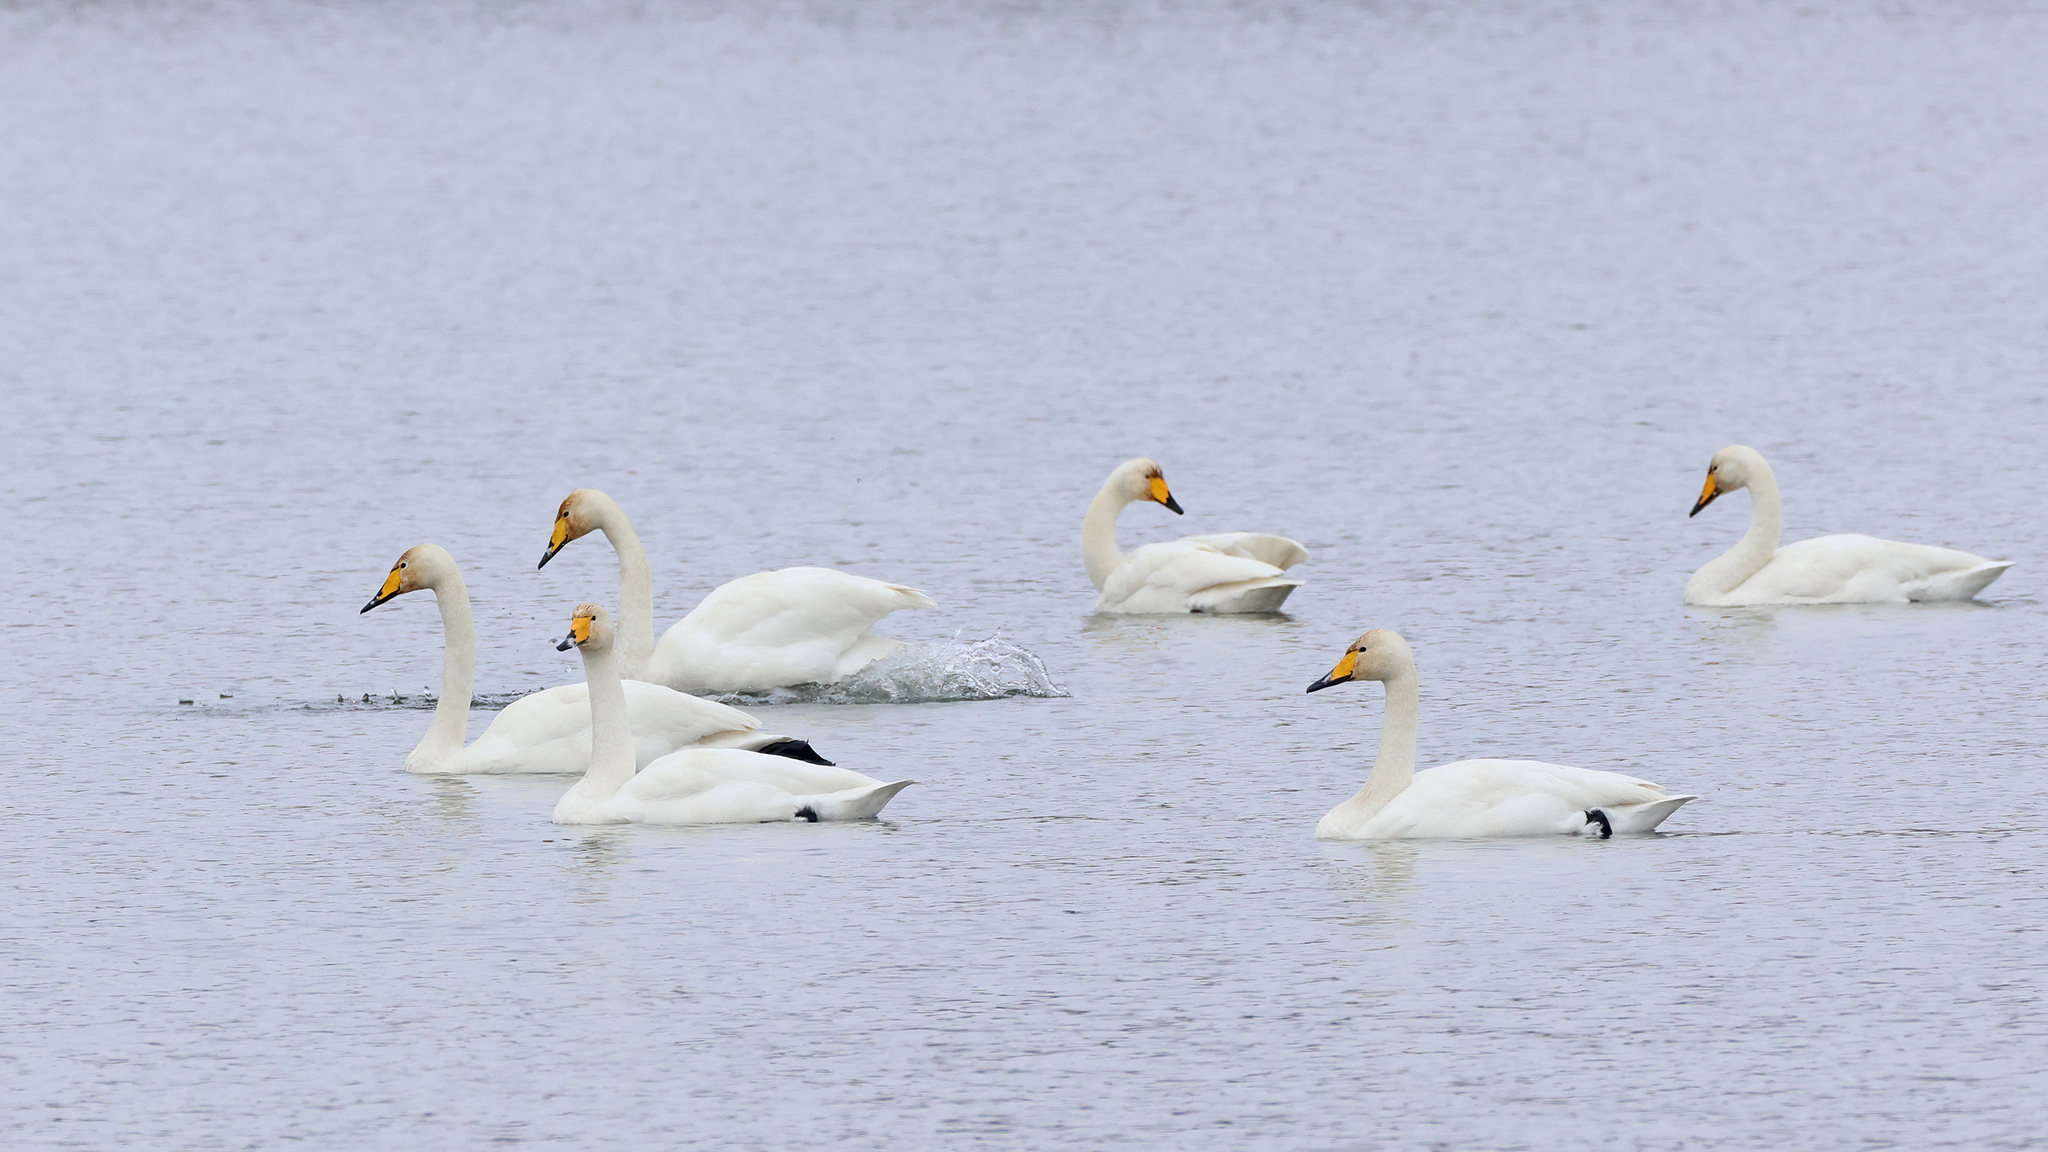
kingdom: Animalia
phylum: Chordata
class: Aves
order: Anseriformes
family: Anatidae
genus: Cygnus
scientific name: Cygnus cygnus
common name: Whooper swan
